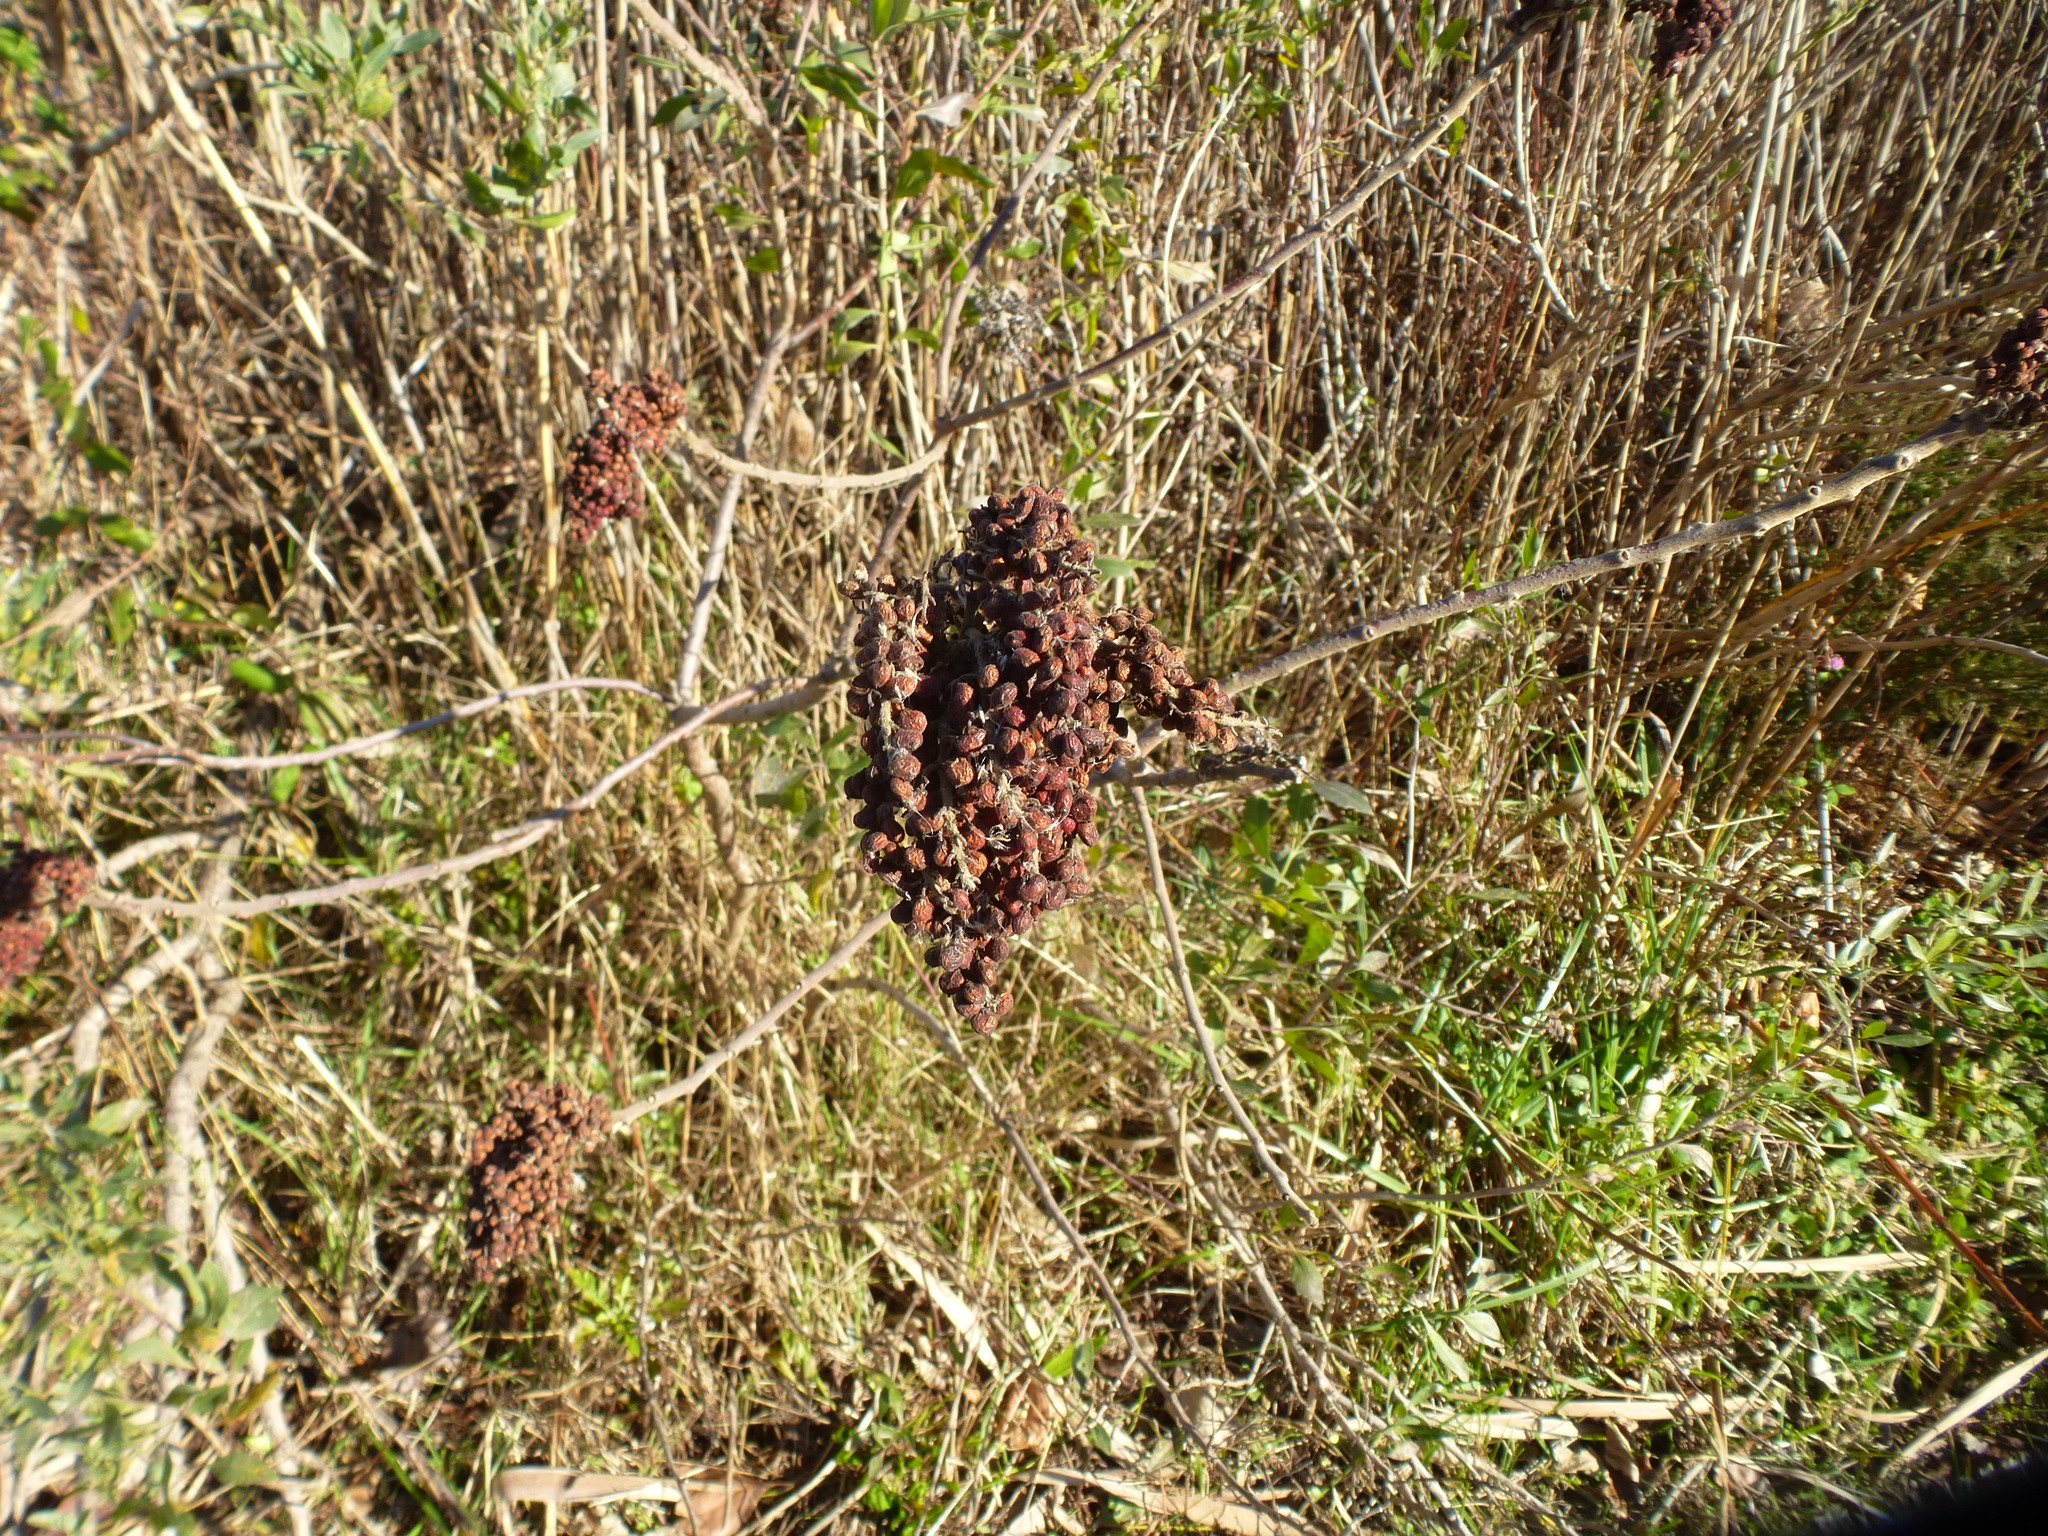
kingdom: Plantae
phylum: Tracheophyta
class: Magnoliopsida
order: Sapindales
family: Anacardiaceae
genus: Rhus
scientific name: Rhus copallina
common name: Shining sumac
